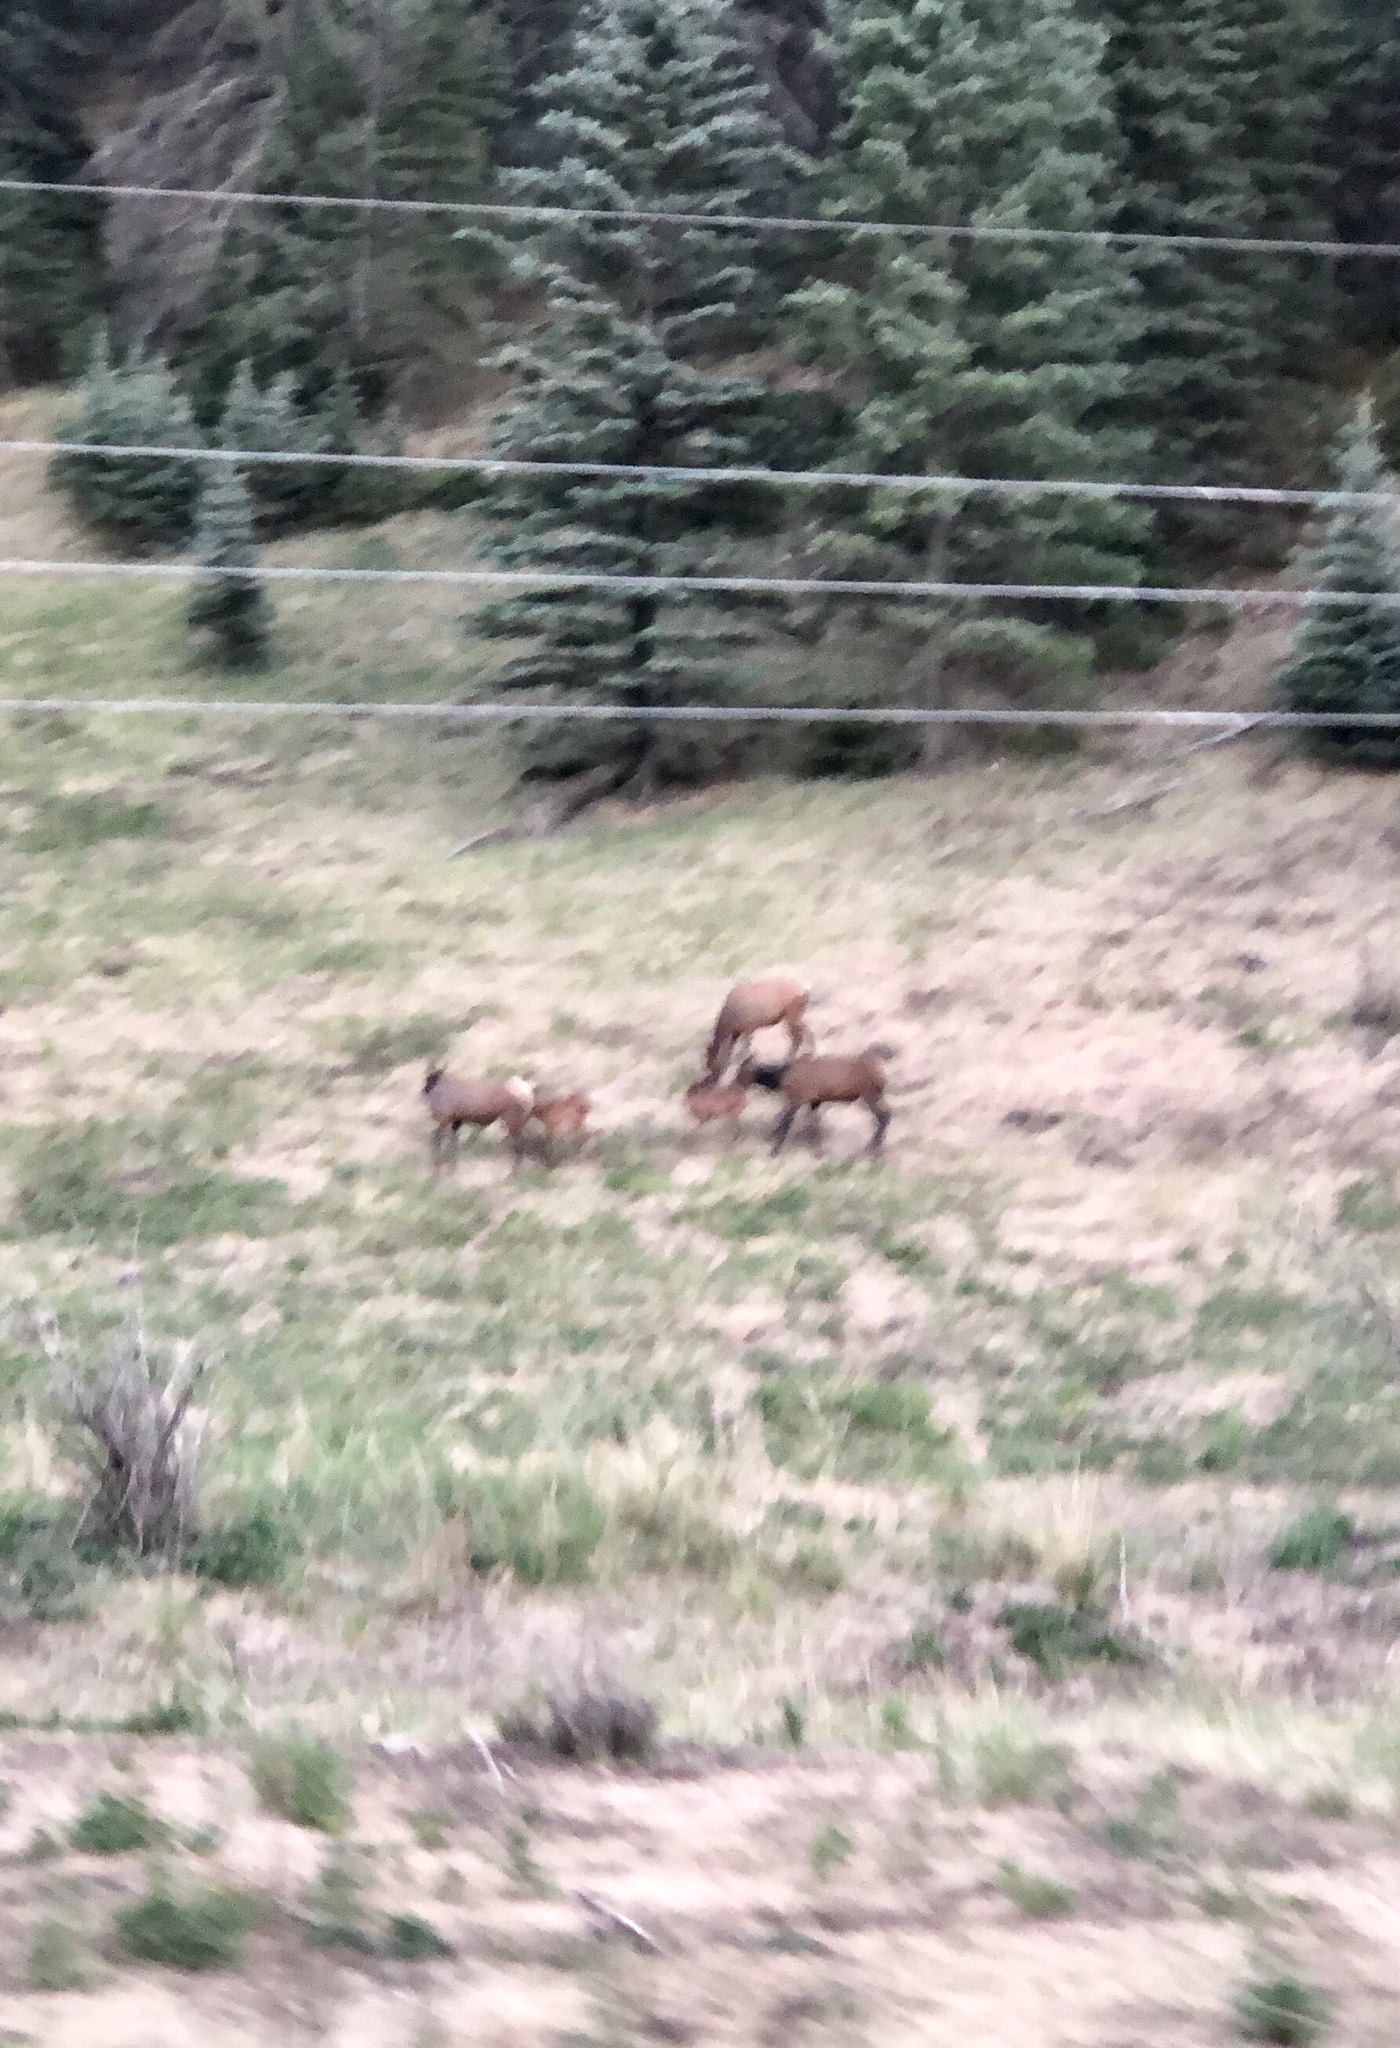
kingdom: Animalia
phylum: Chordata
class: Mammalia
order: Artiodactyla
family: Cervidae
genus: Cervus
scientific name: Cervus elaphus
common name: Red deer
